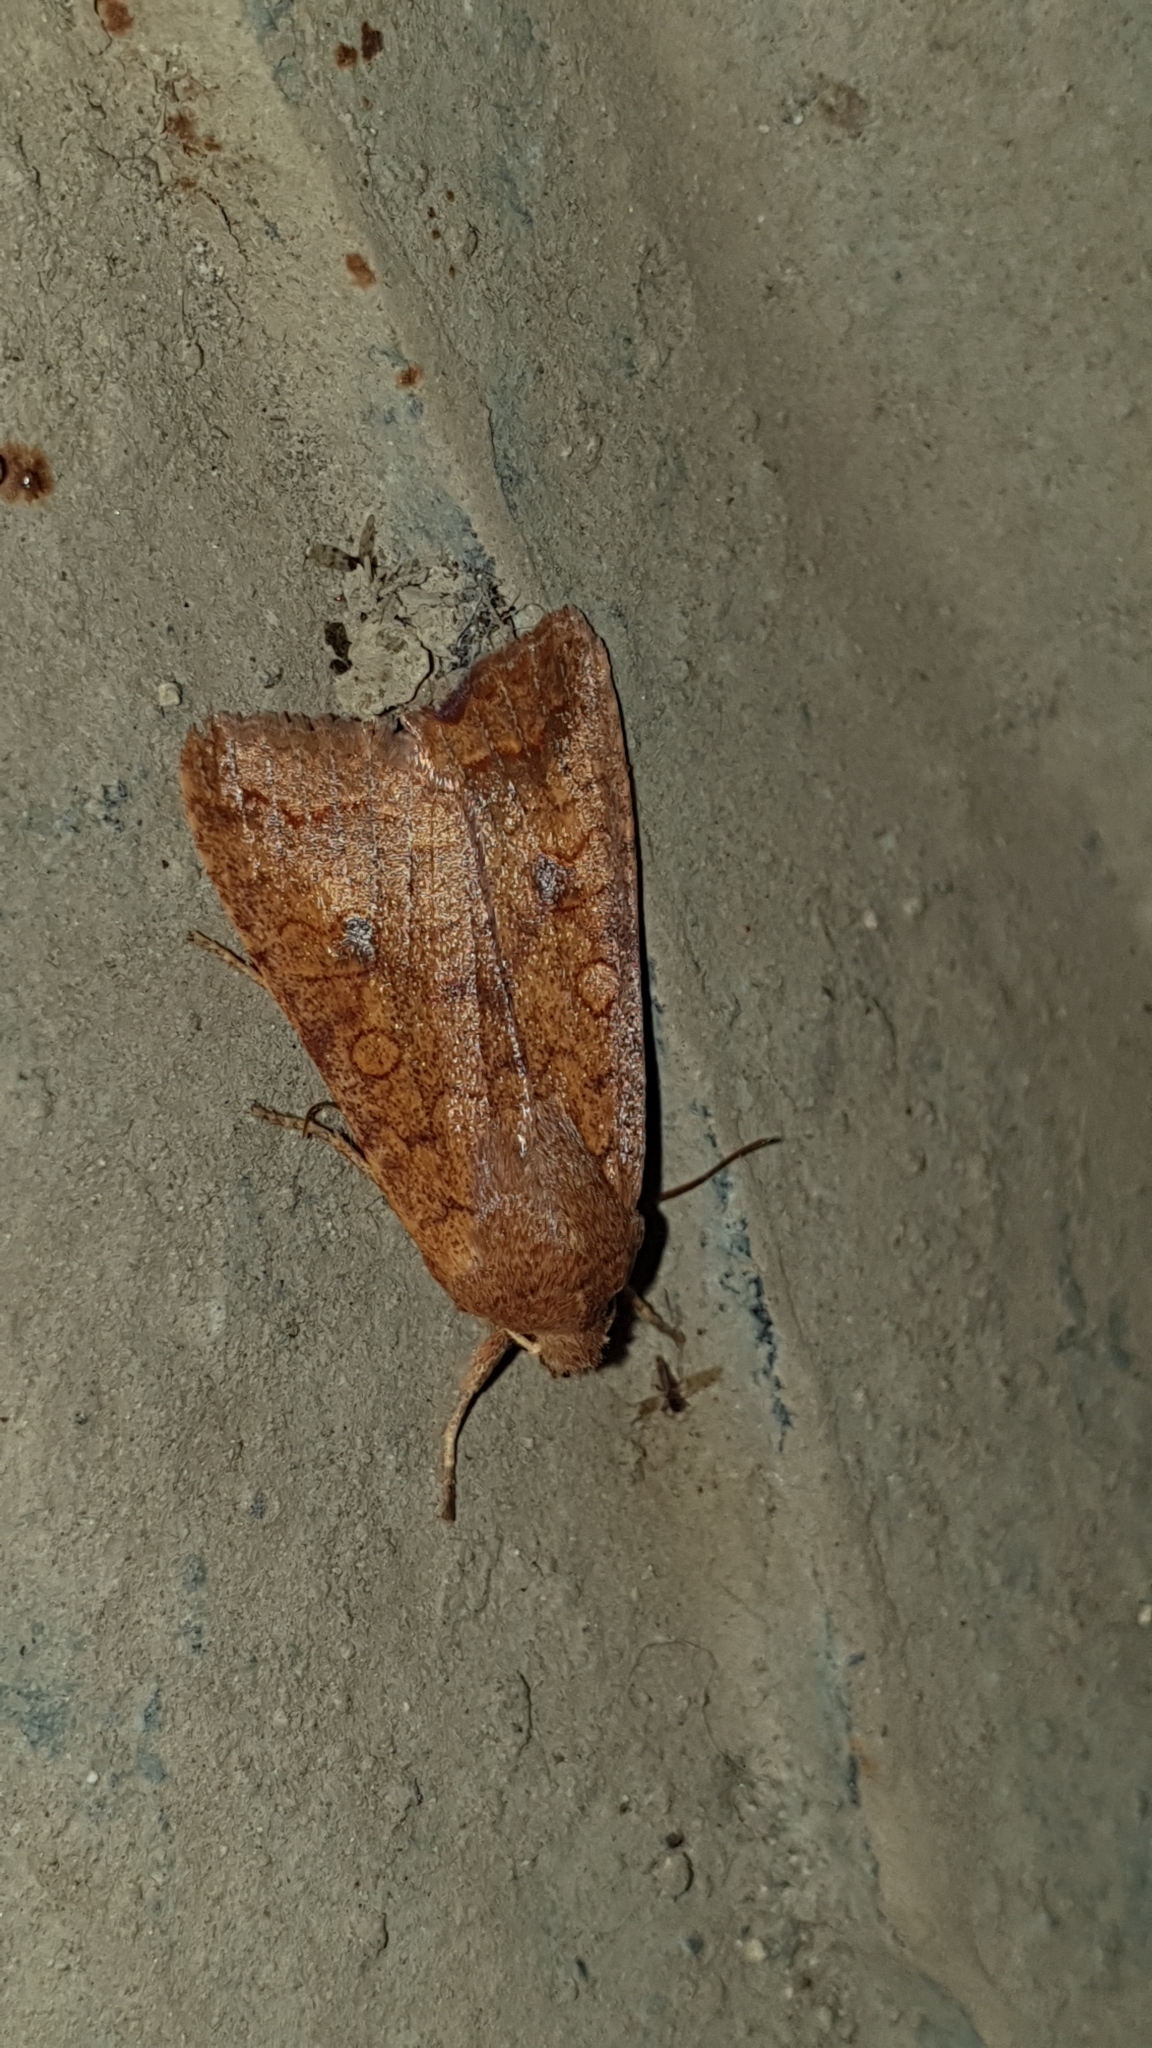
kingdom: Animalia
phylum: Arthropoda
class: Insecta
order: Lepidoptera
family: Noctuidae
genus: Sunira
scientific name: Sunira circellaris
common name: Brick
